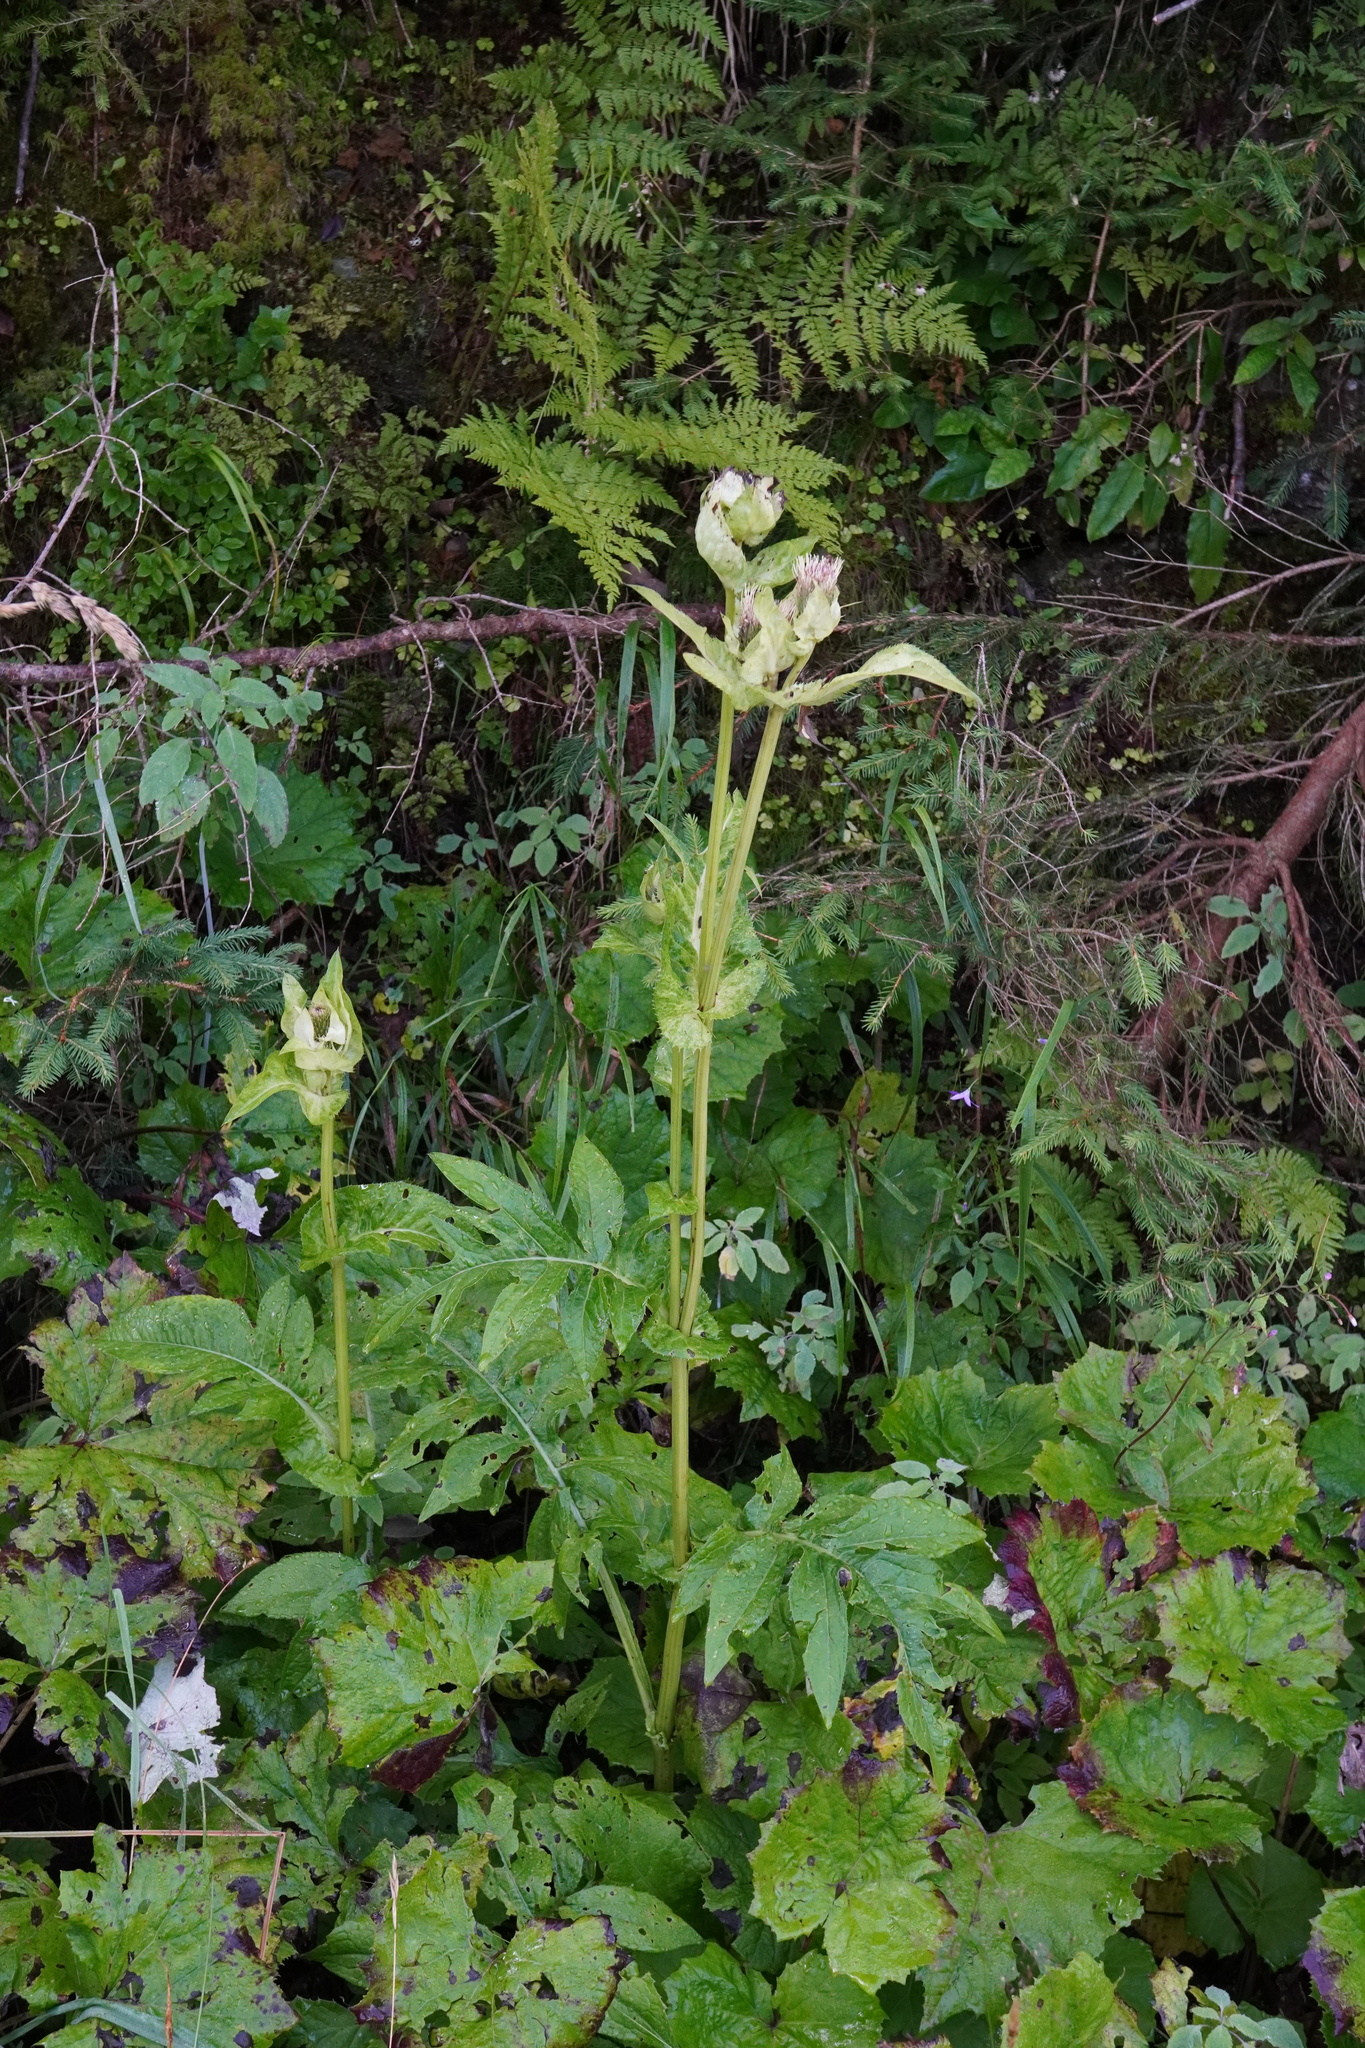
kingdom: Plantae
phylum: Tracheophyta
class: Magnoliopsida
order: Asterales
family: Asteraceae
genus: Cirsium
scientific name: Cirsium oleraceum
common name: Cabbage thistle
